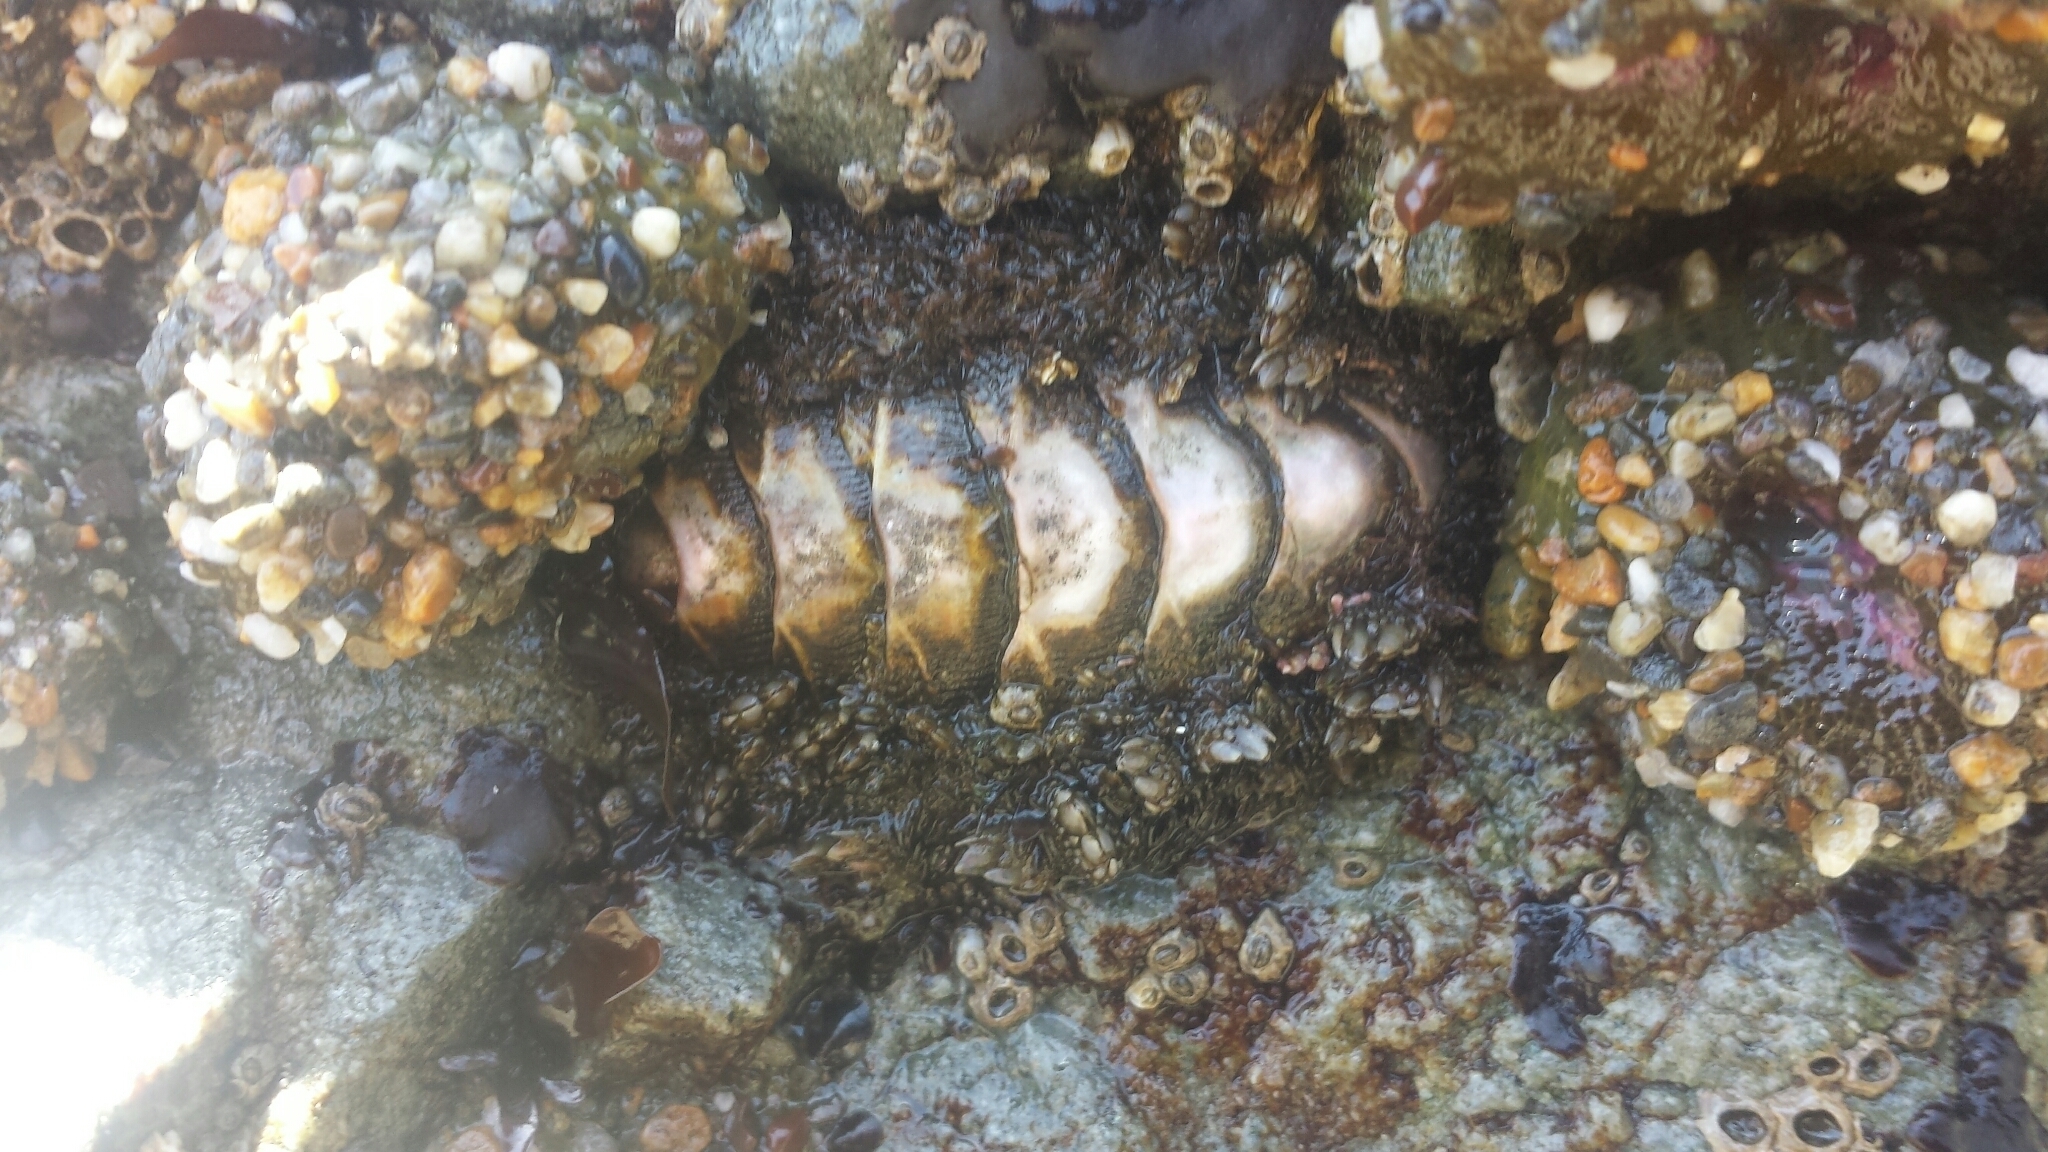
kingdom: Animalia
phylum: Mollusca
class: Polyplacophora
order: Chitonida
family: Mopaliidae
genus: Mopalia
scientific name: Mopalia muscosa
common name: Mossy chiton
